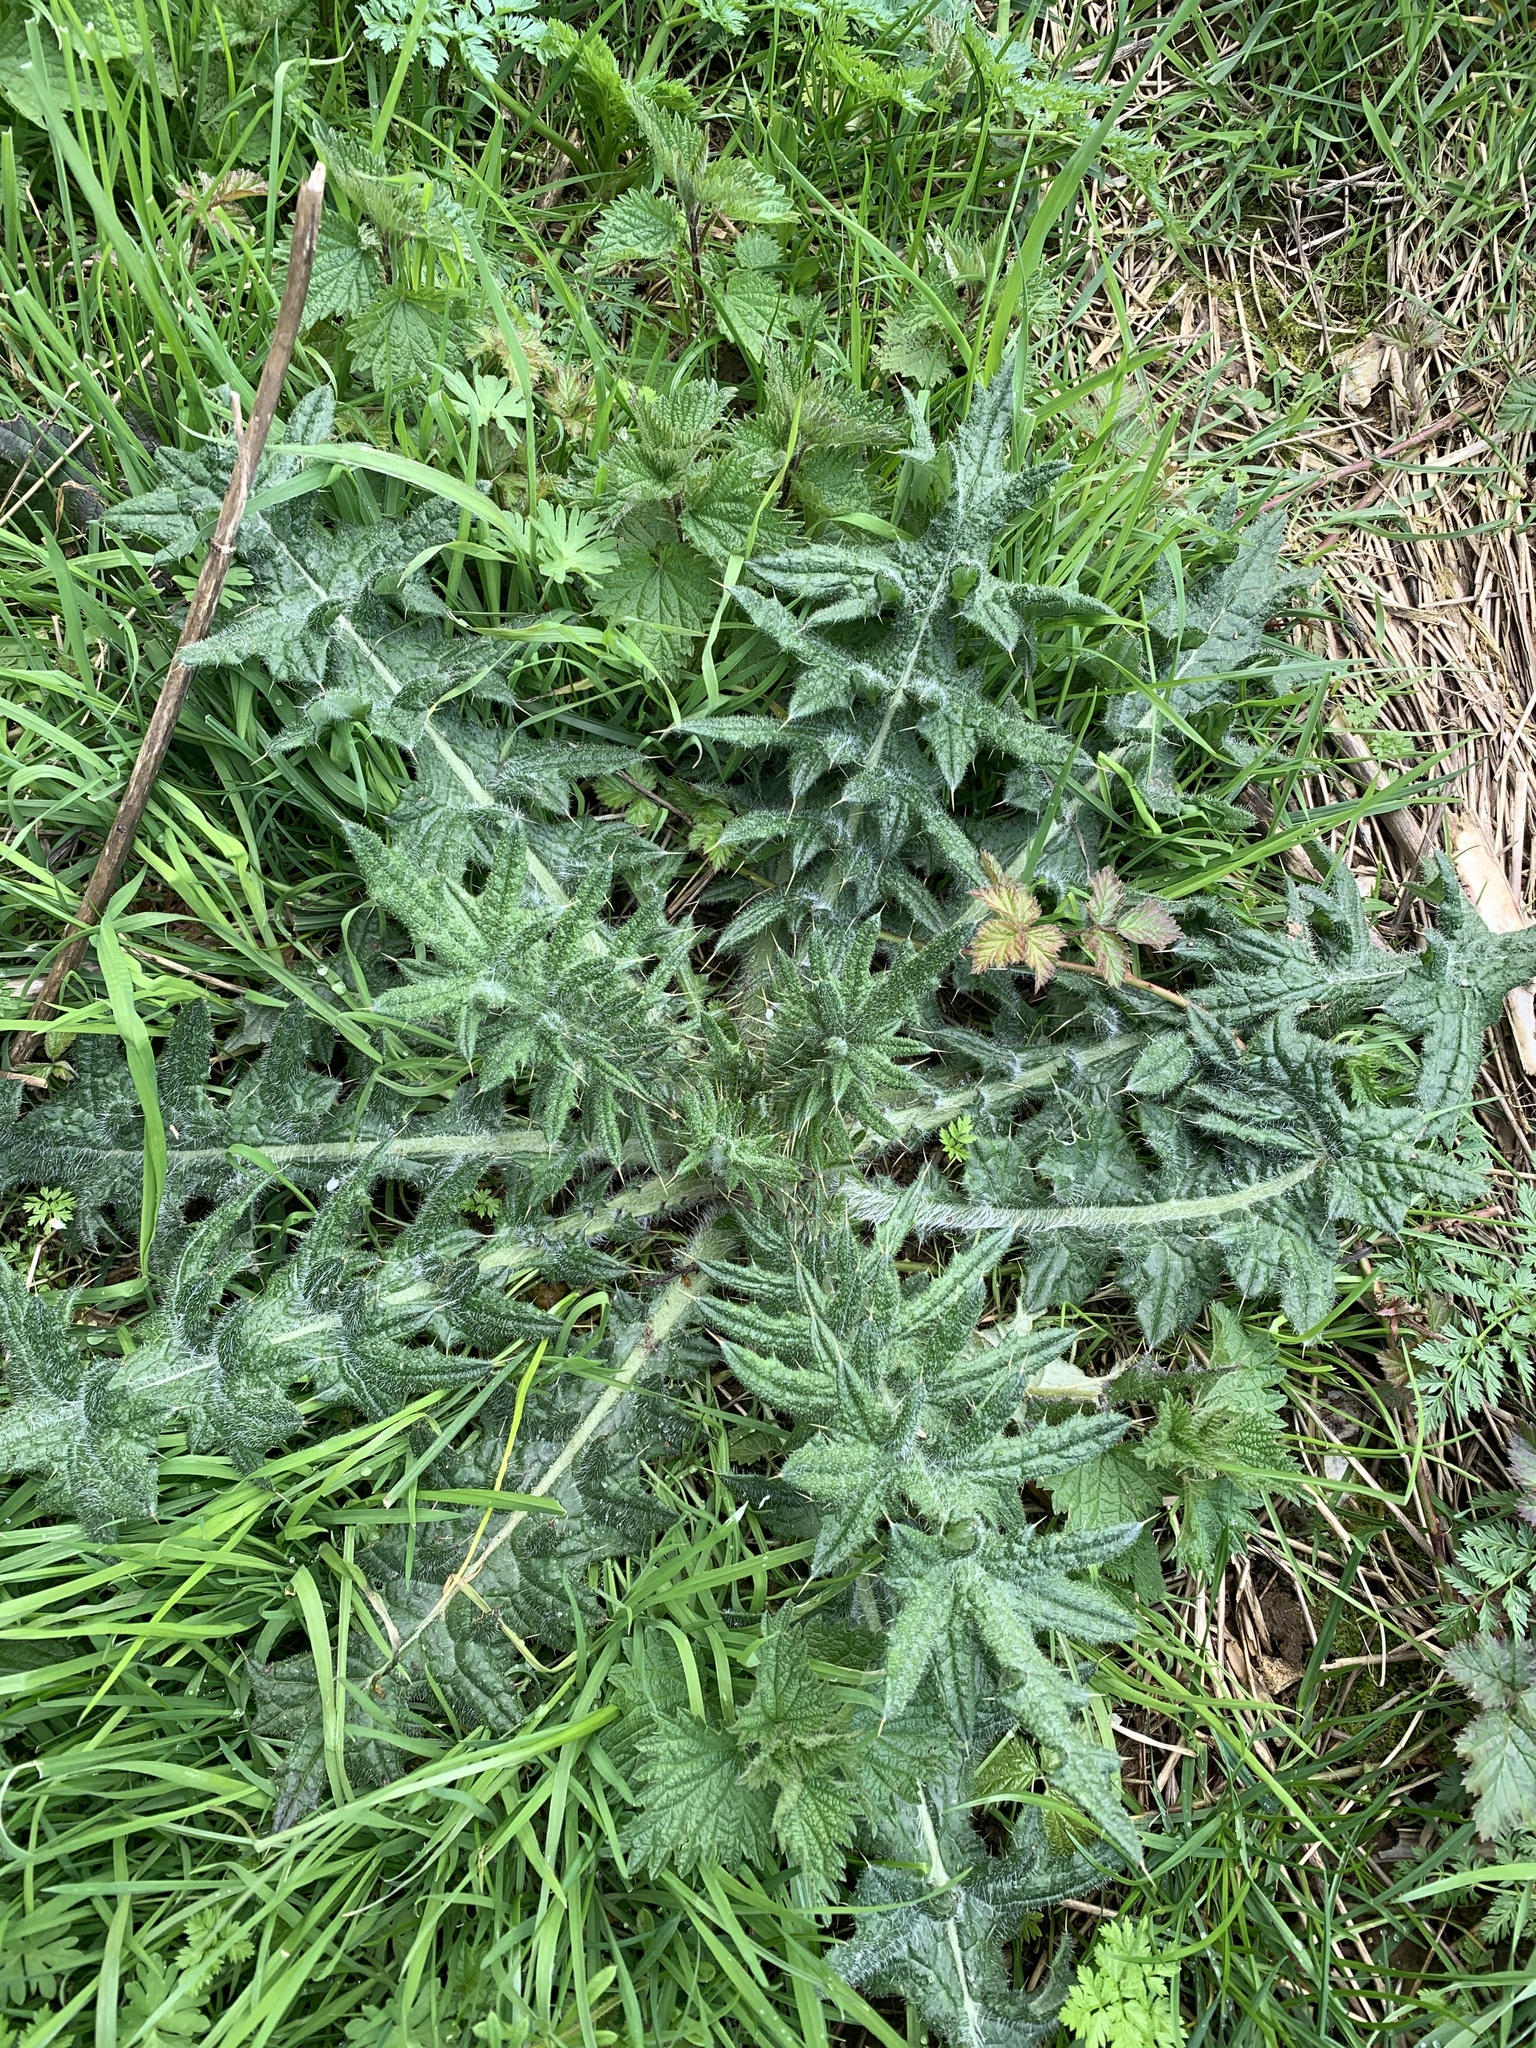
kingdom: Plantae
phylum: Tracheophyta
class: Magnoliopsida
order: Asterales
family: Asteraceae
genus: Cirsium
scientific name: Cirsium vulgare
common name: Bull thistle
